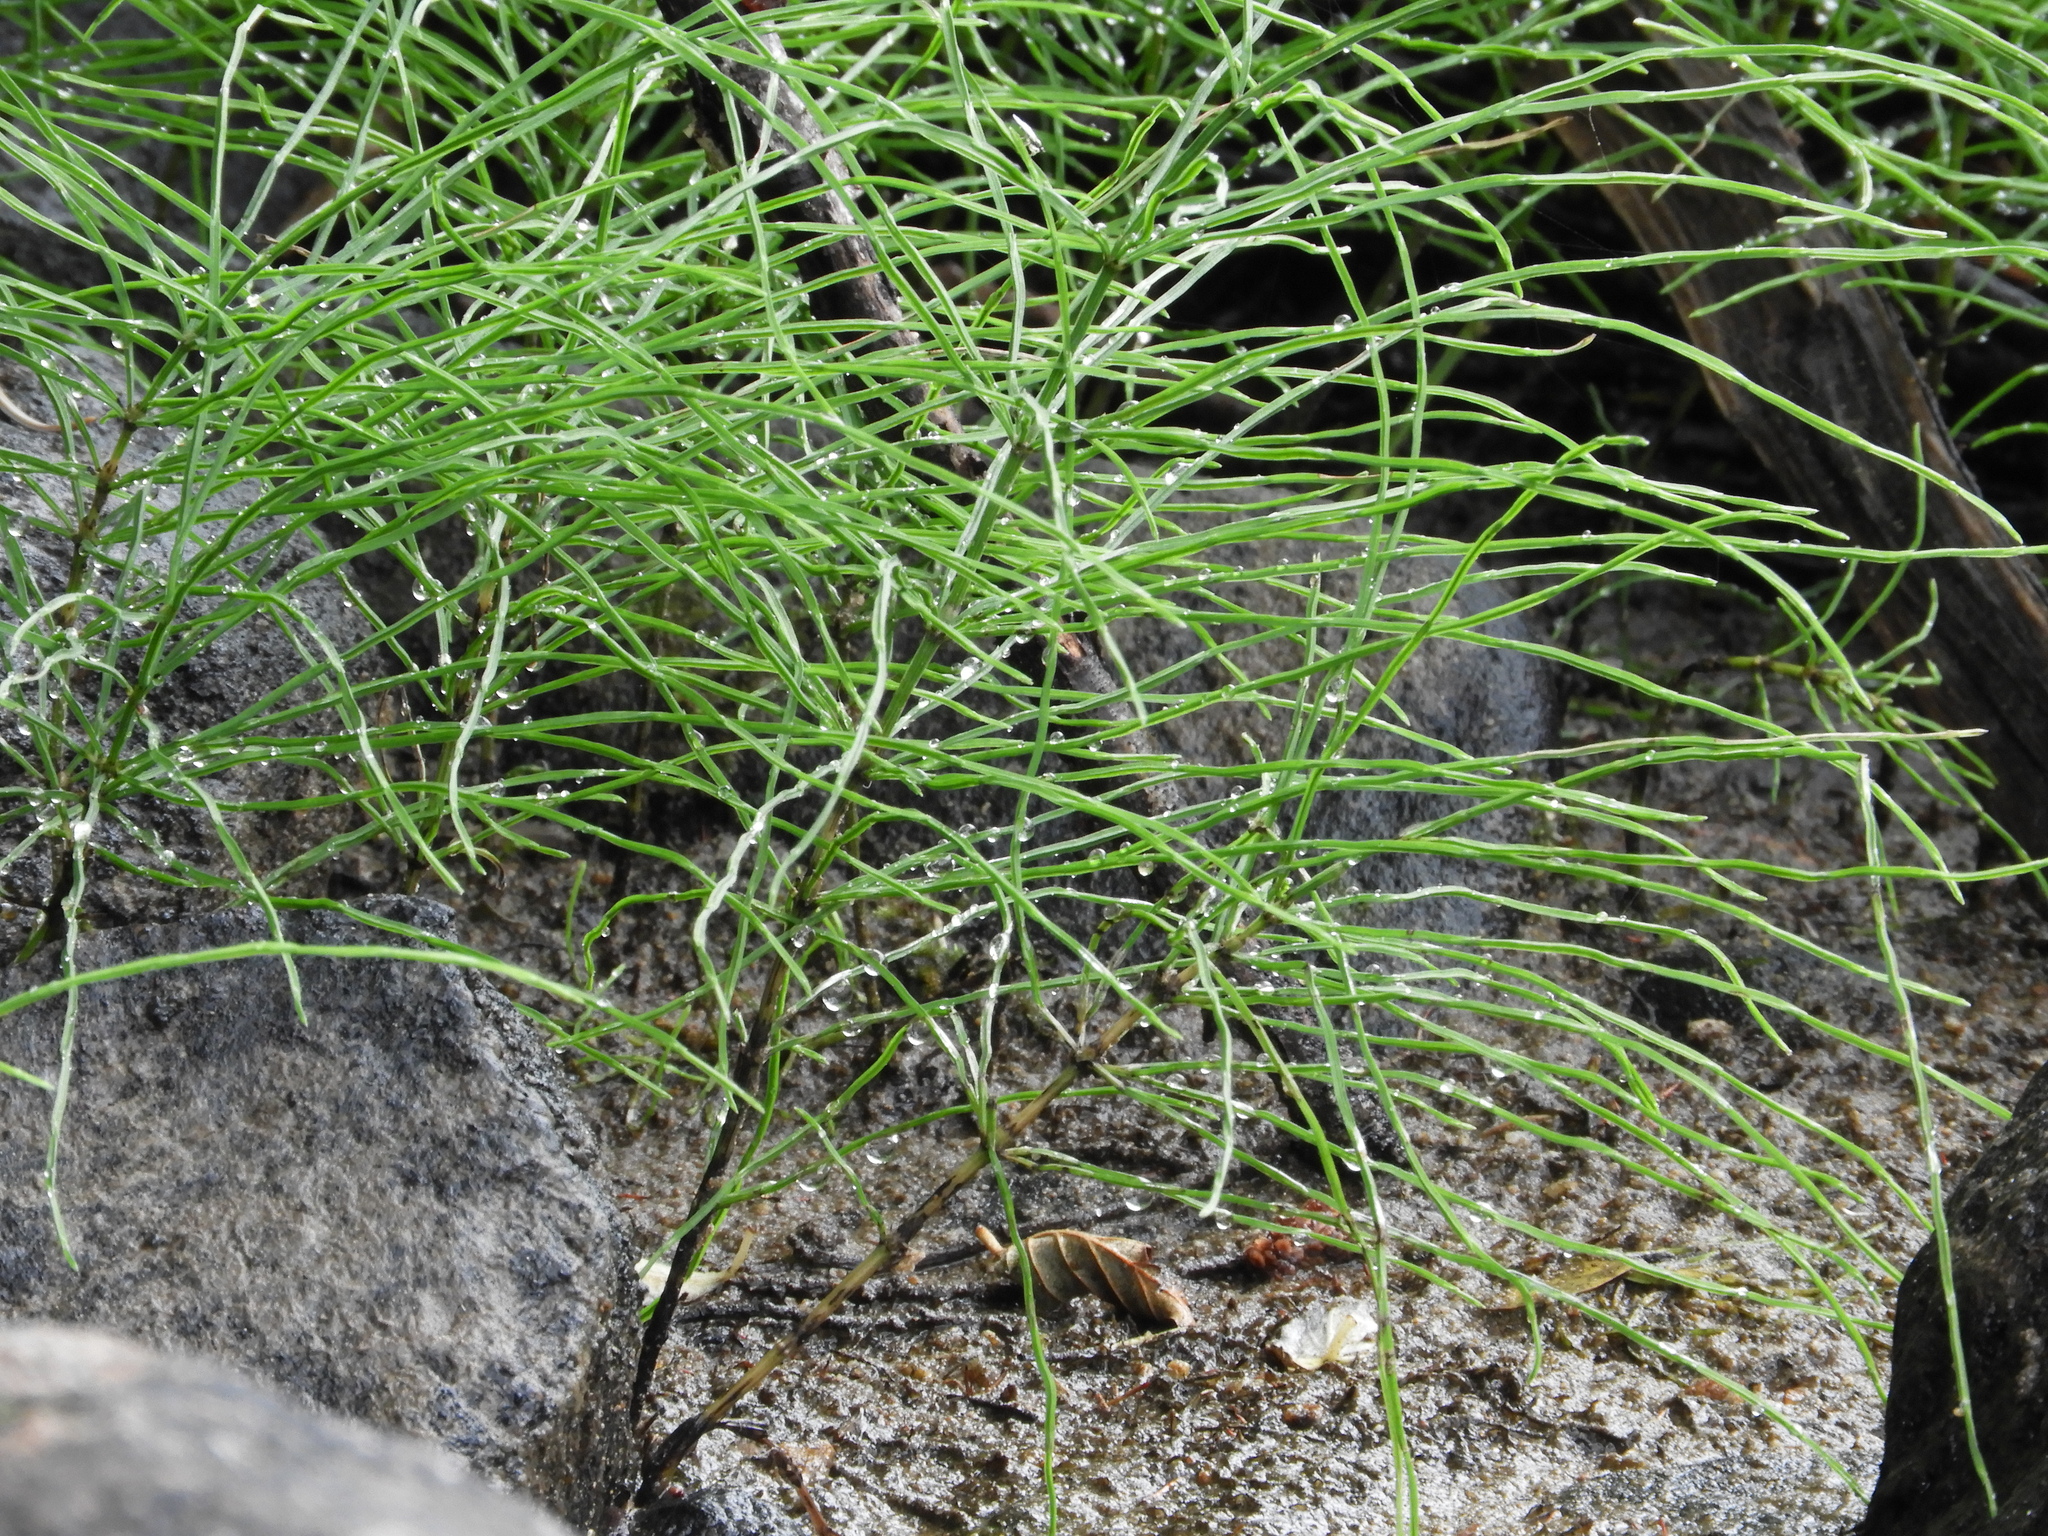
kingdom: Plantae
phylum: Tracheophyta
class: Polypodiopsida
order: Equisetales
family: Equisetaceae
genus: Equisetum
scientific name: Equisetum arvense
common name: Field horsetail
